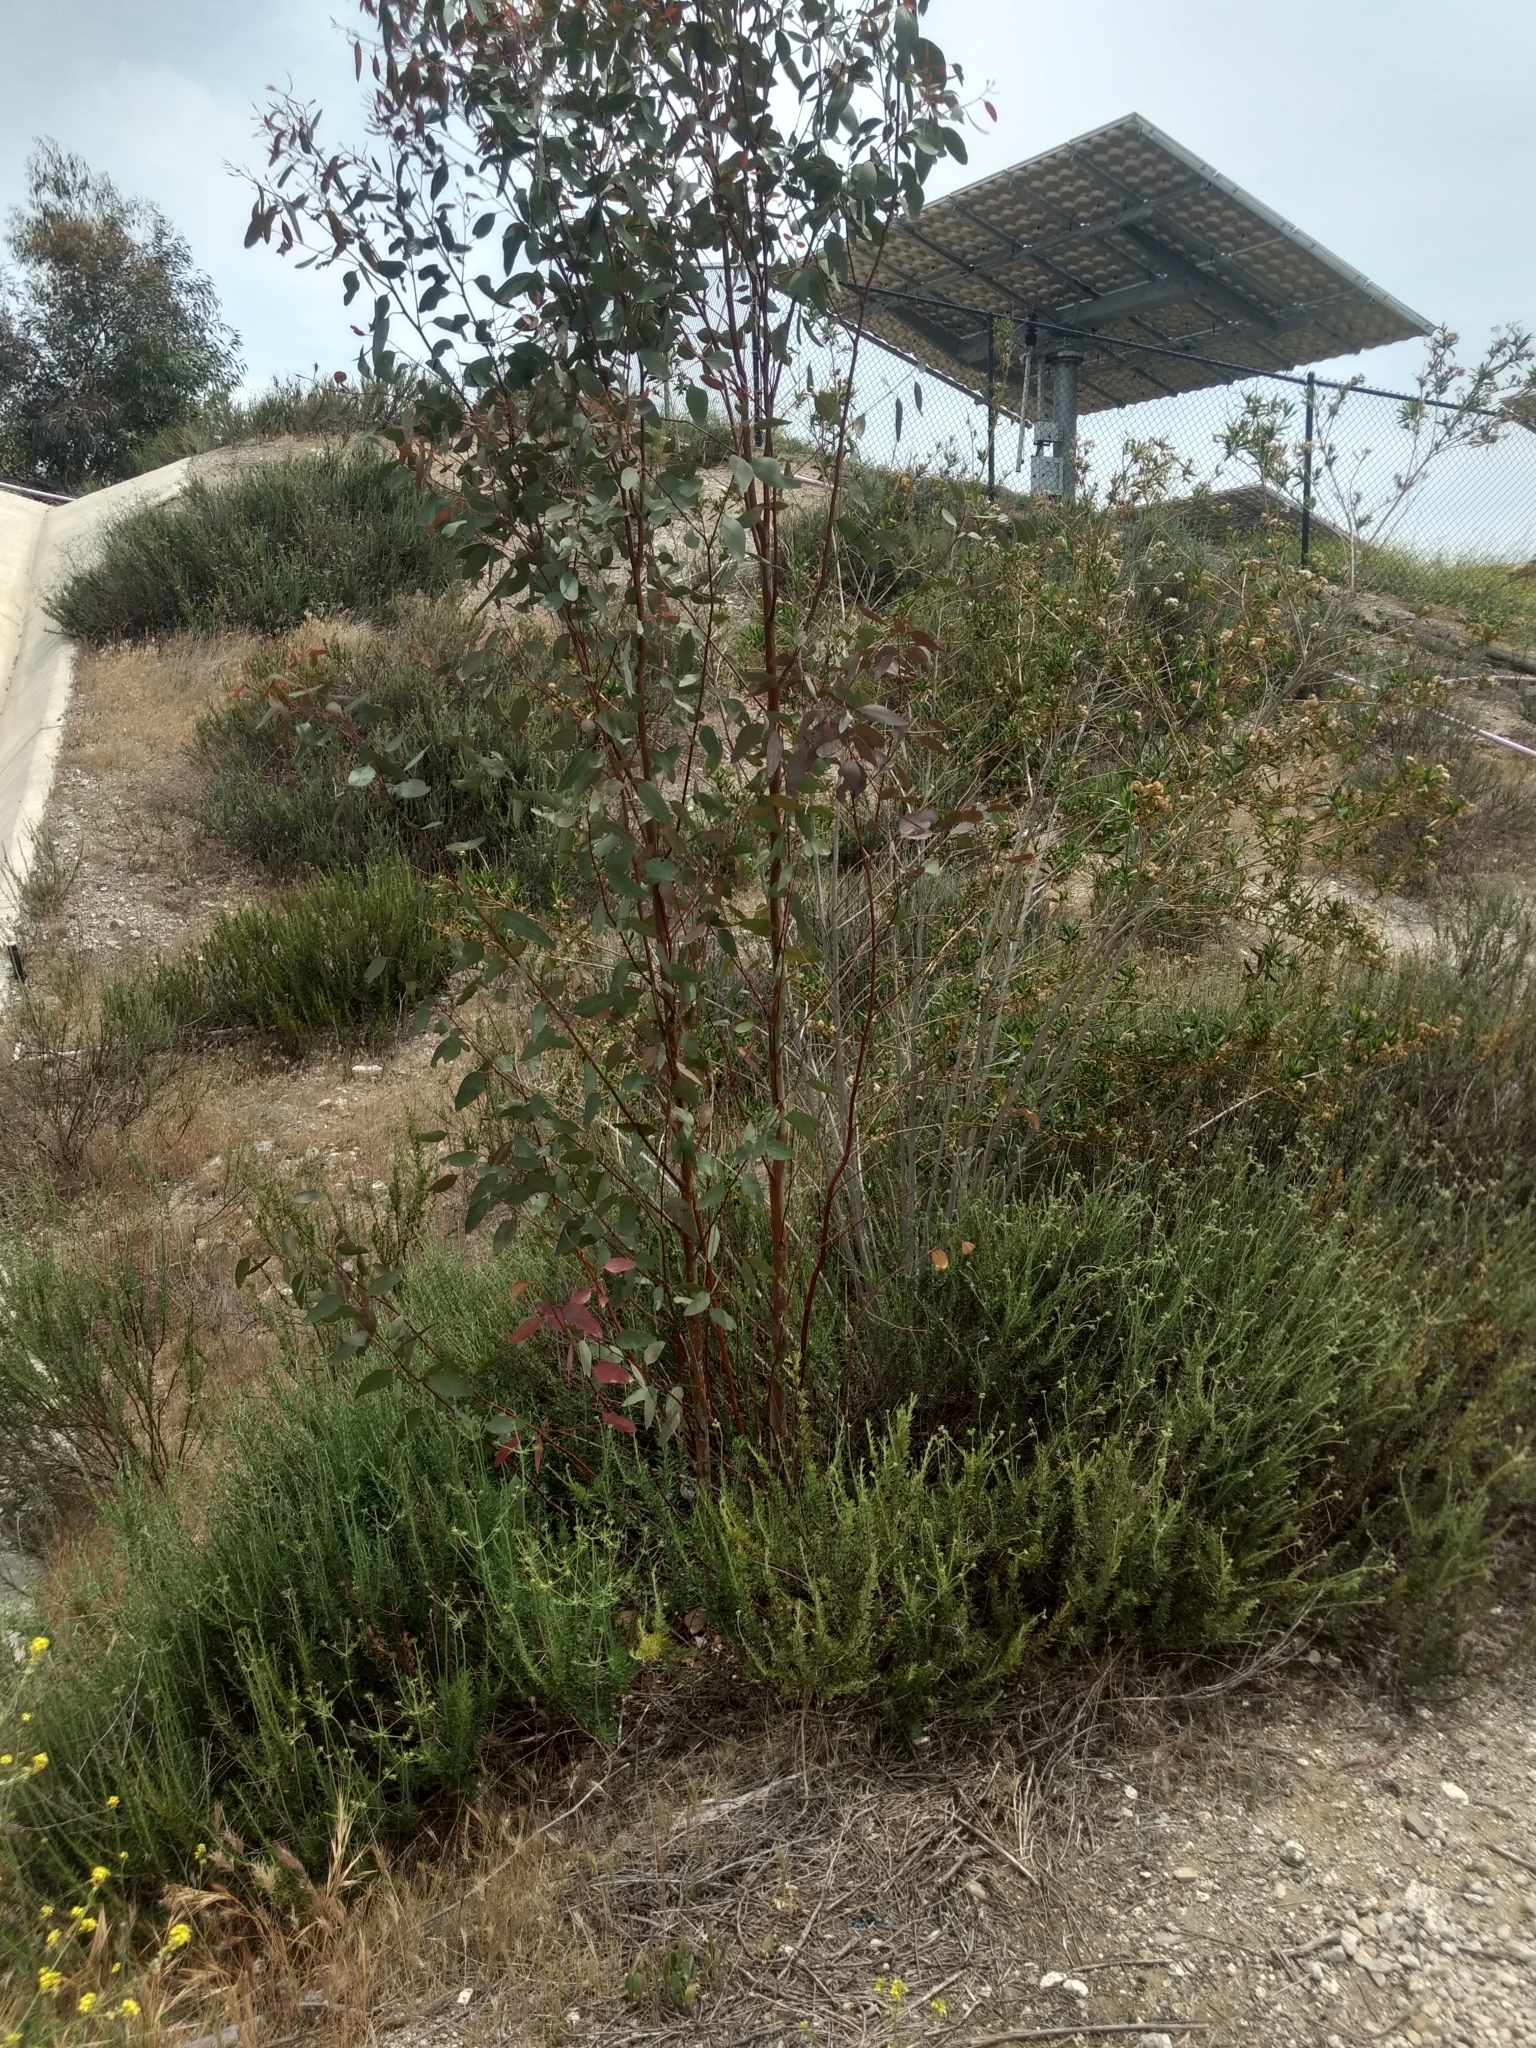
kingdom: Plantae
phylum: Tracheophyta
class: Magnoliopsida
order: Myrtales
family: Myrtaceae
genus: Eucalyptus
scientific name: Eucalyptus camaldulensis
